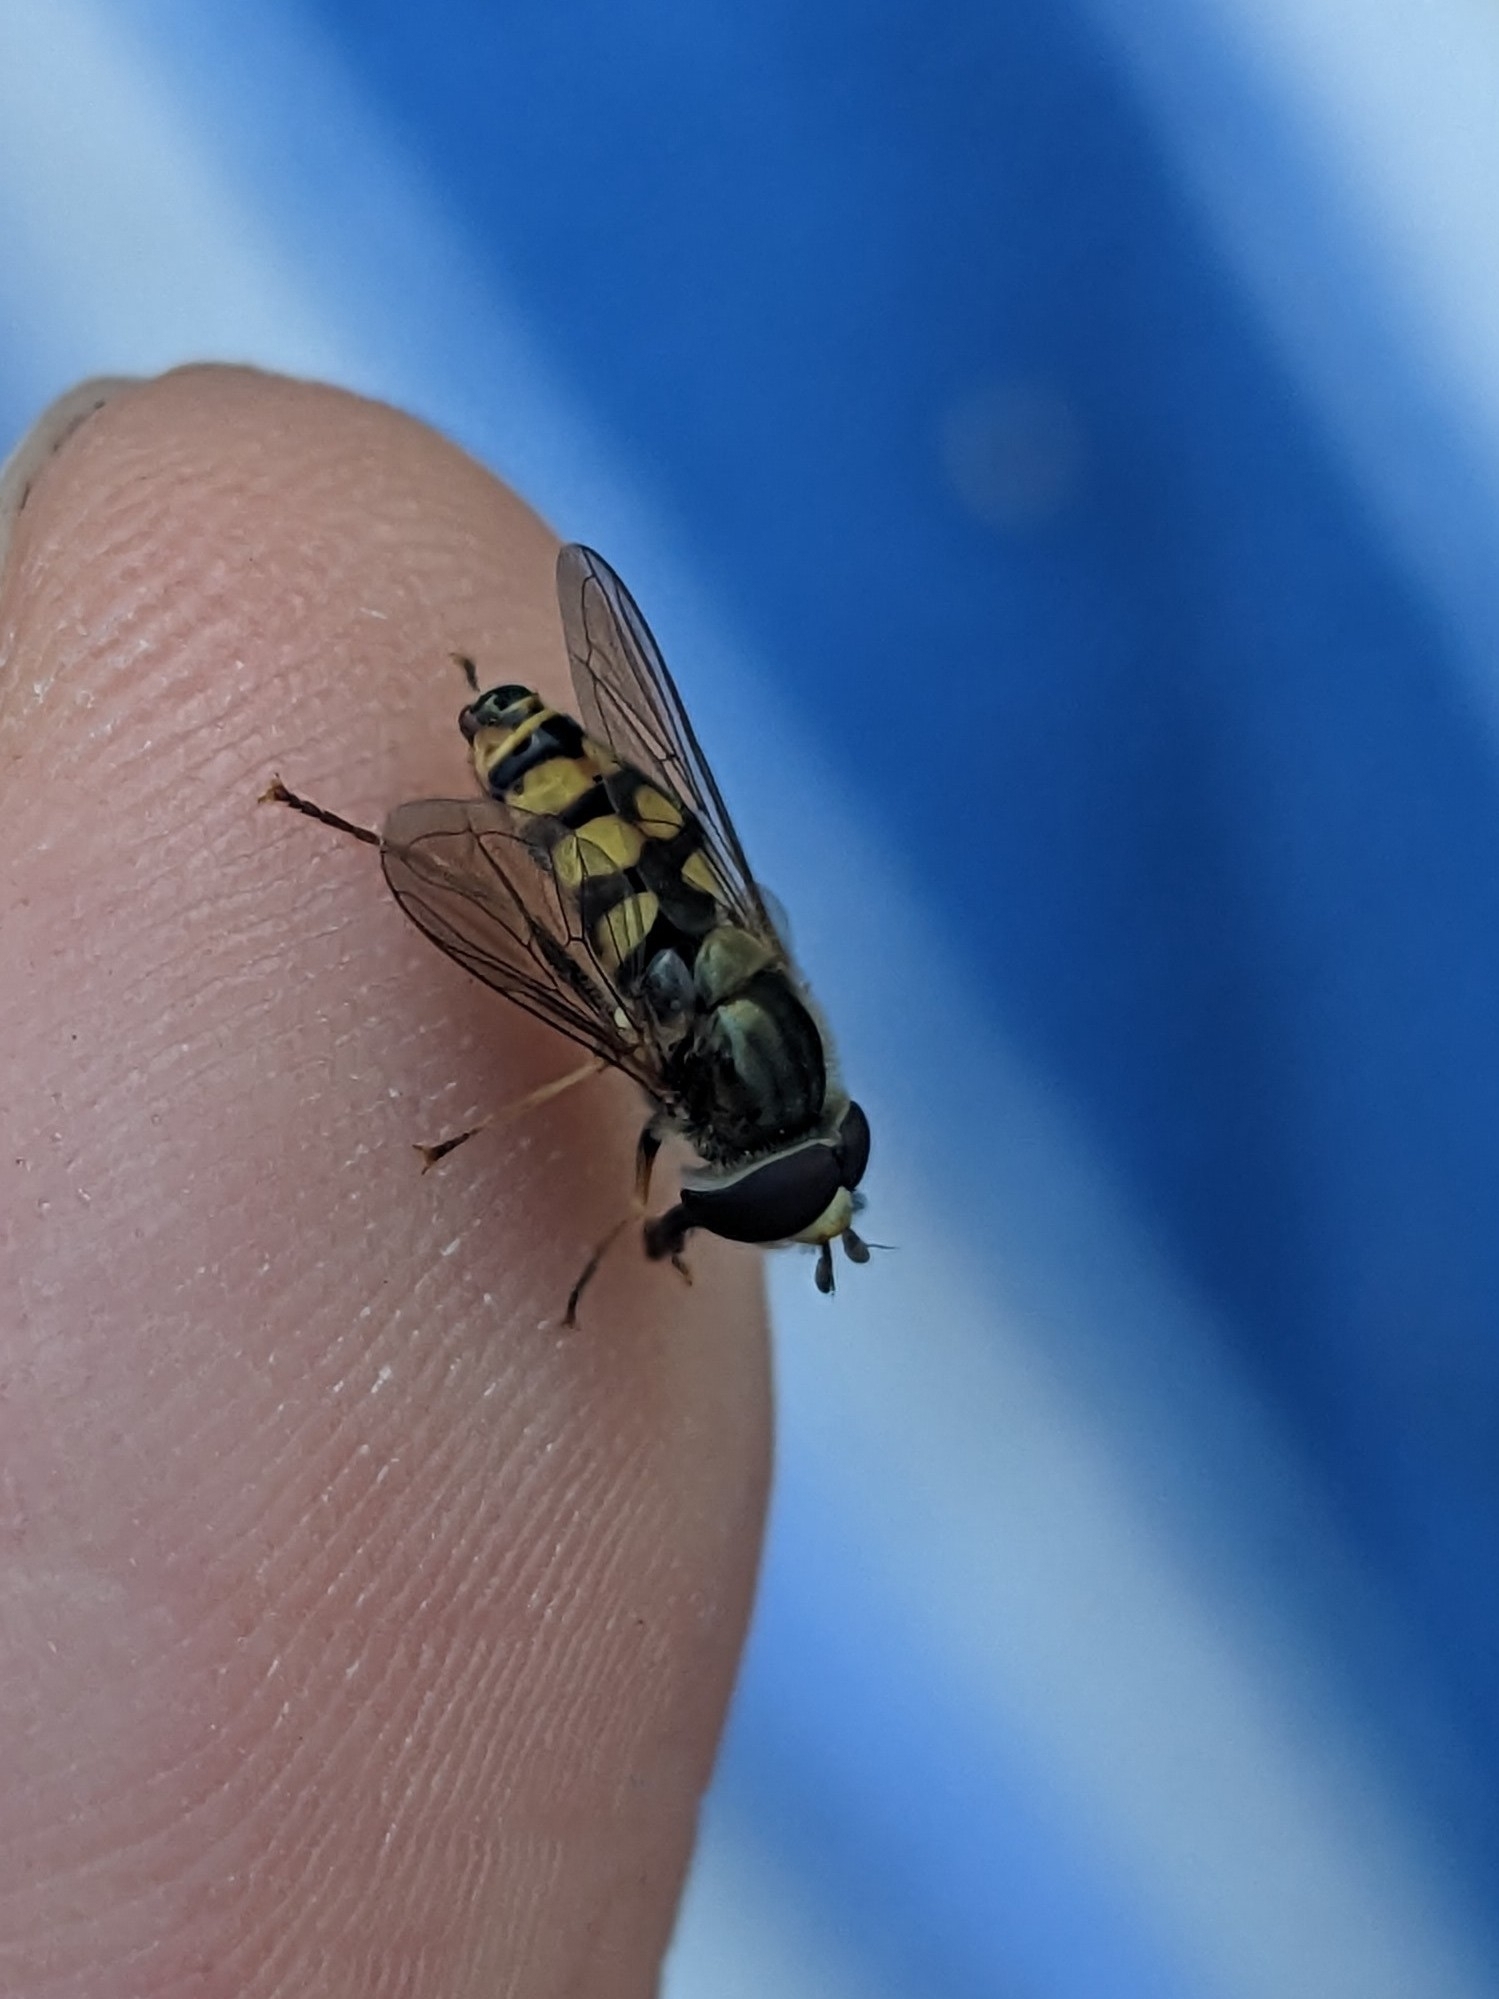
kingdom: Animalia
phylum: Arthropoda
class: Insecta
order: Diptera
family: Syrphidae
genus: Eupeodes
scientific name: Eupeodes corollae
